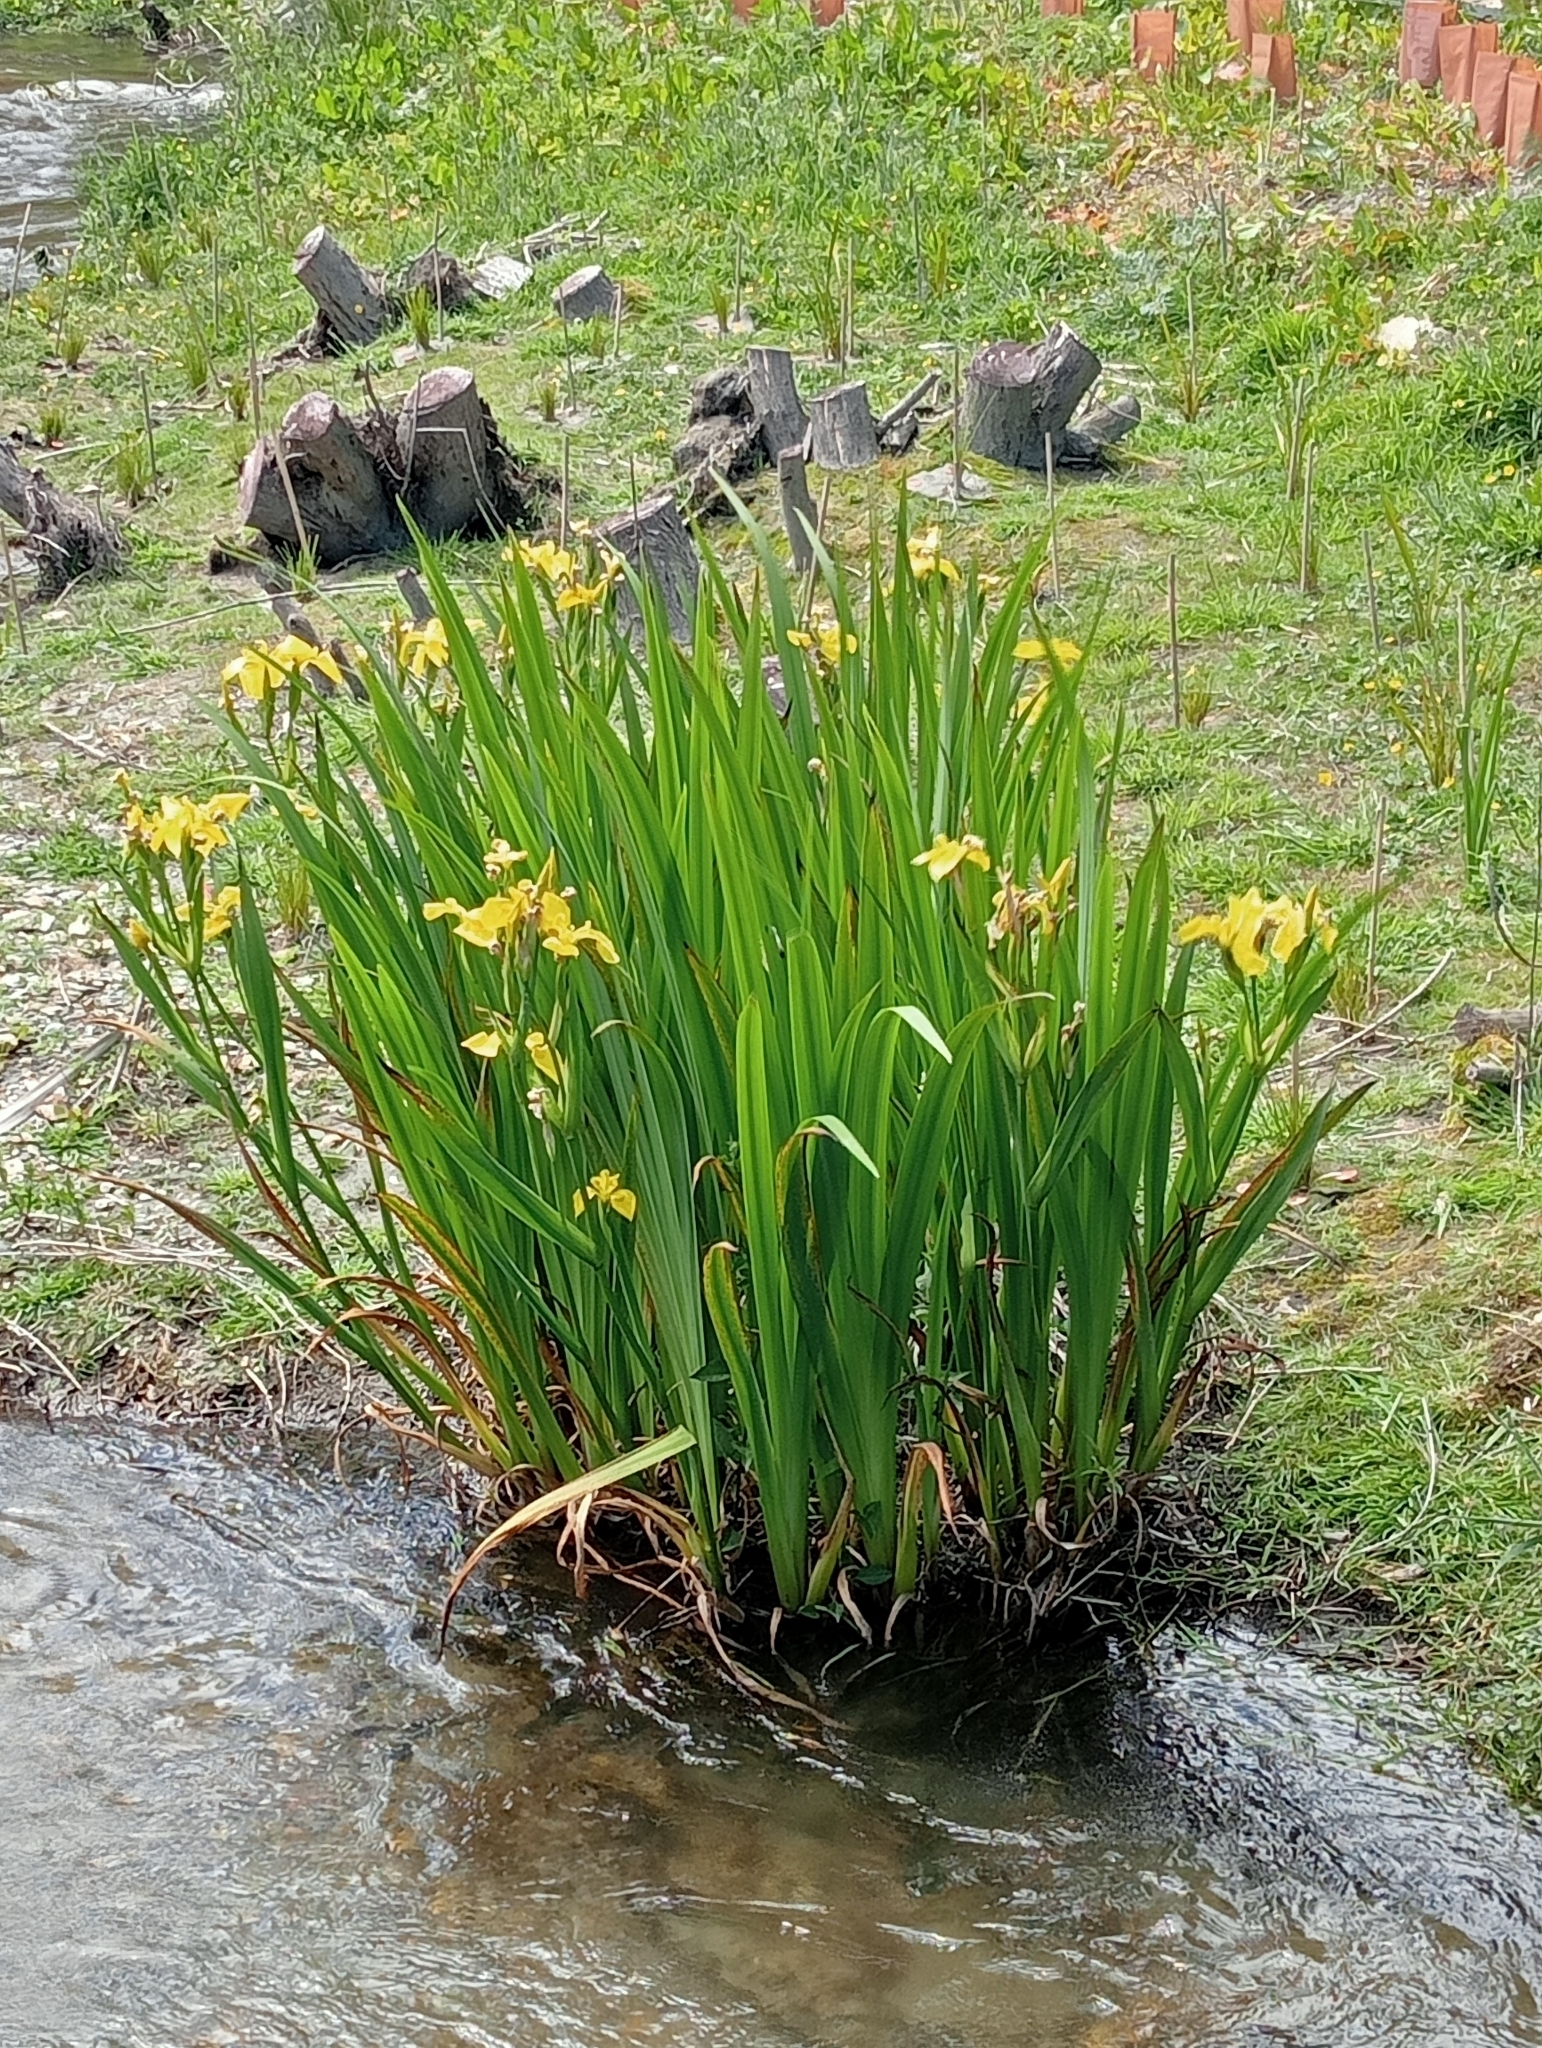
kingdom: Plantae
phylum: Tracheophyta
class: Liliopsida
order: Asparagales
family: Iridaceae
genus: Iris
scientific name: Iris pseudacorus
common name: Yellow flag
